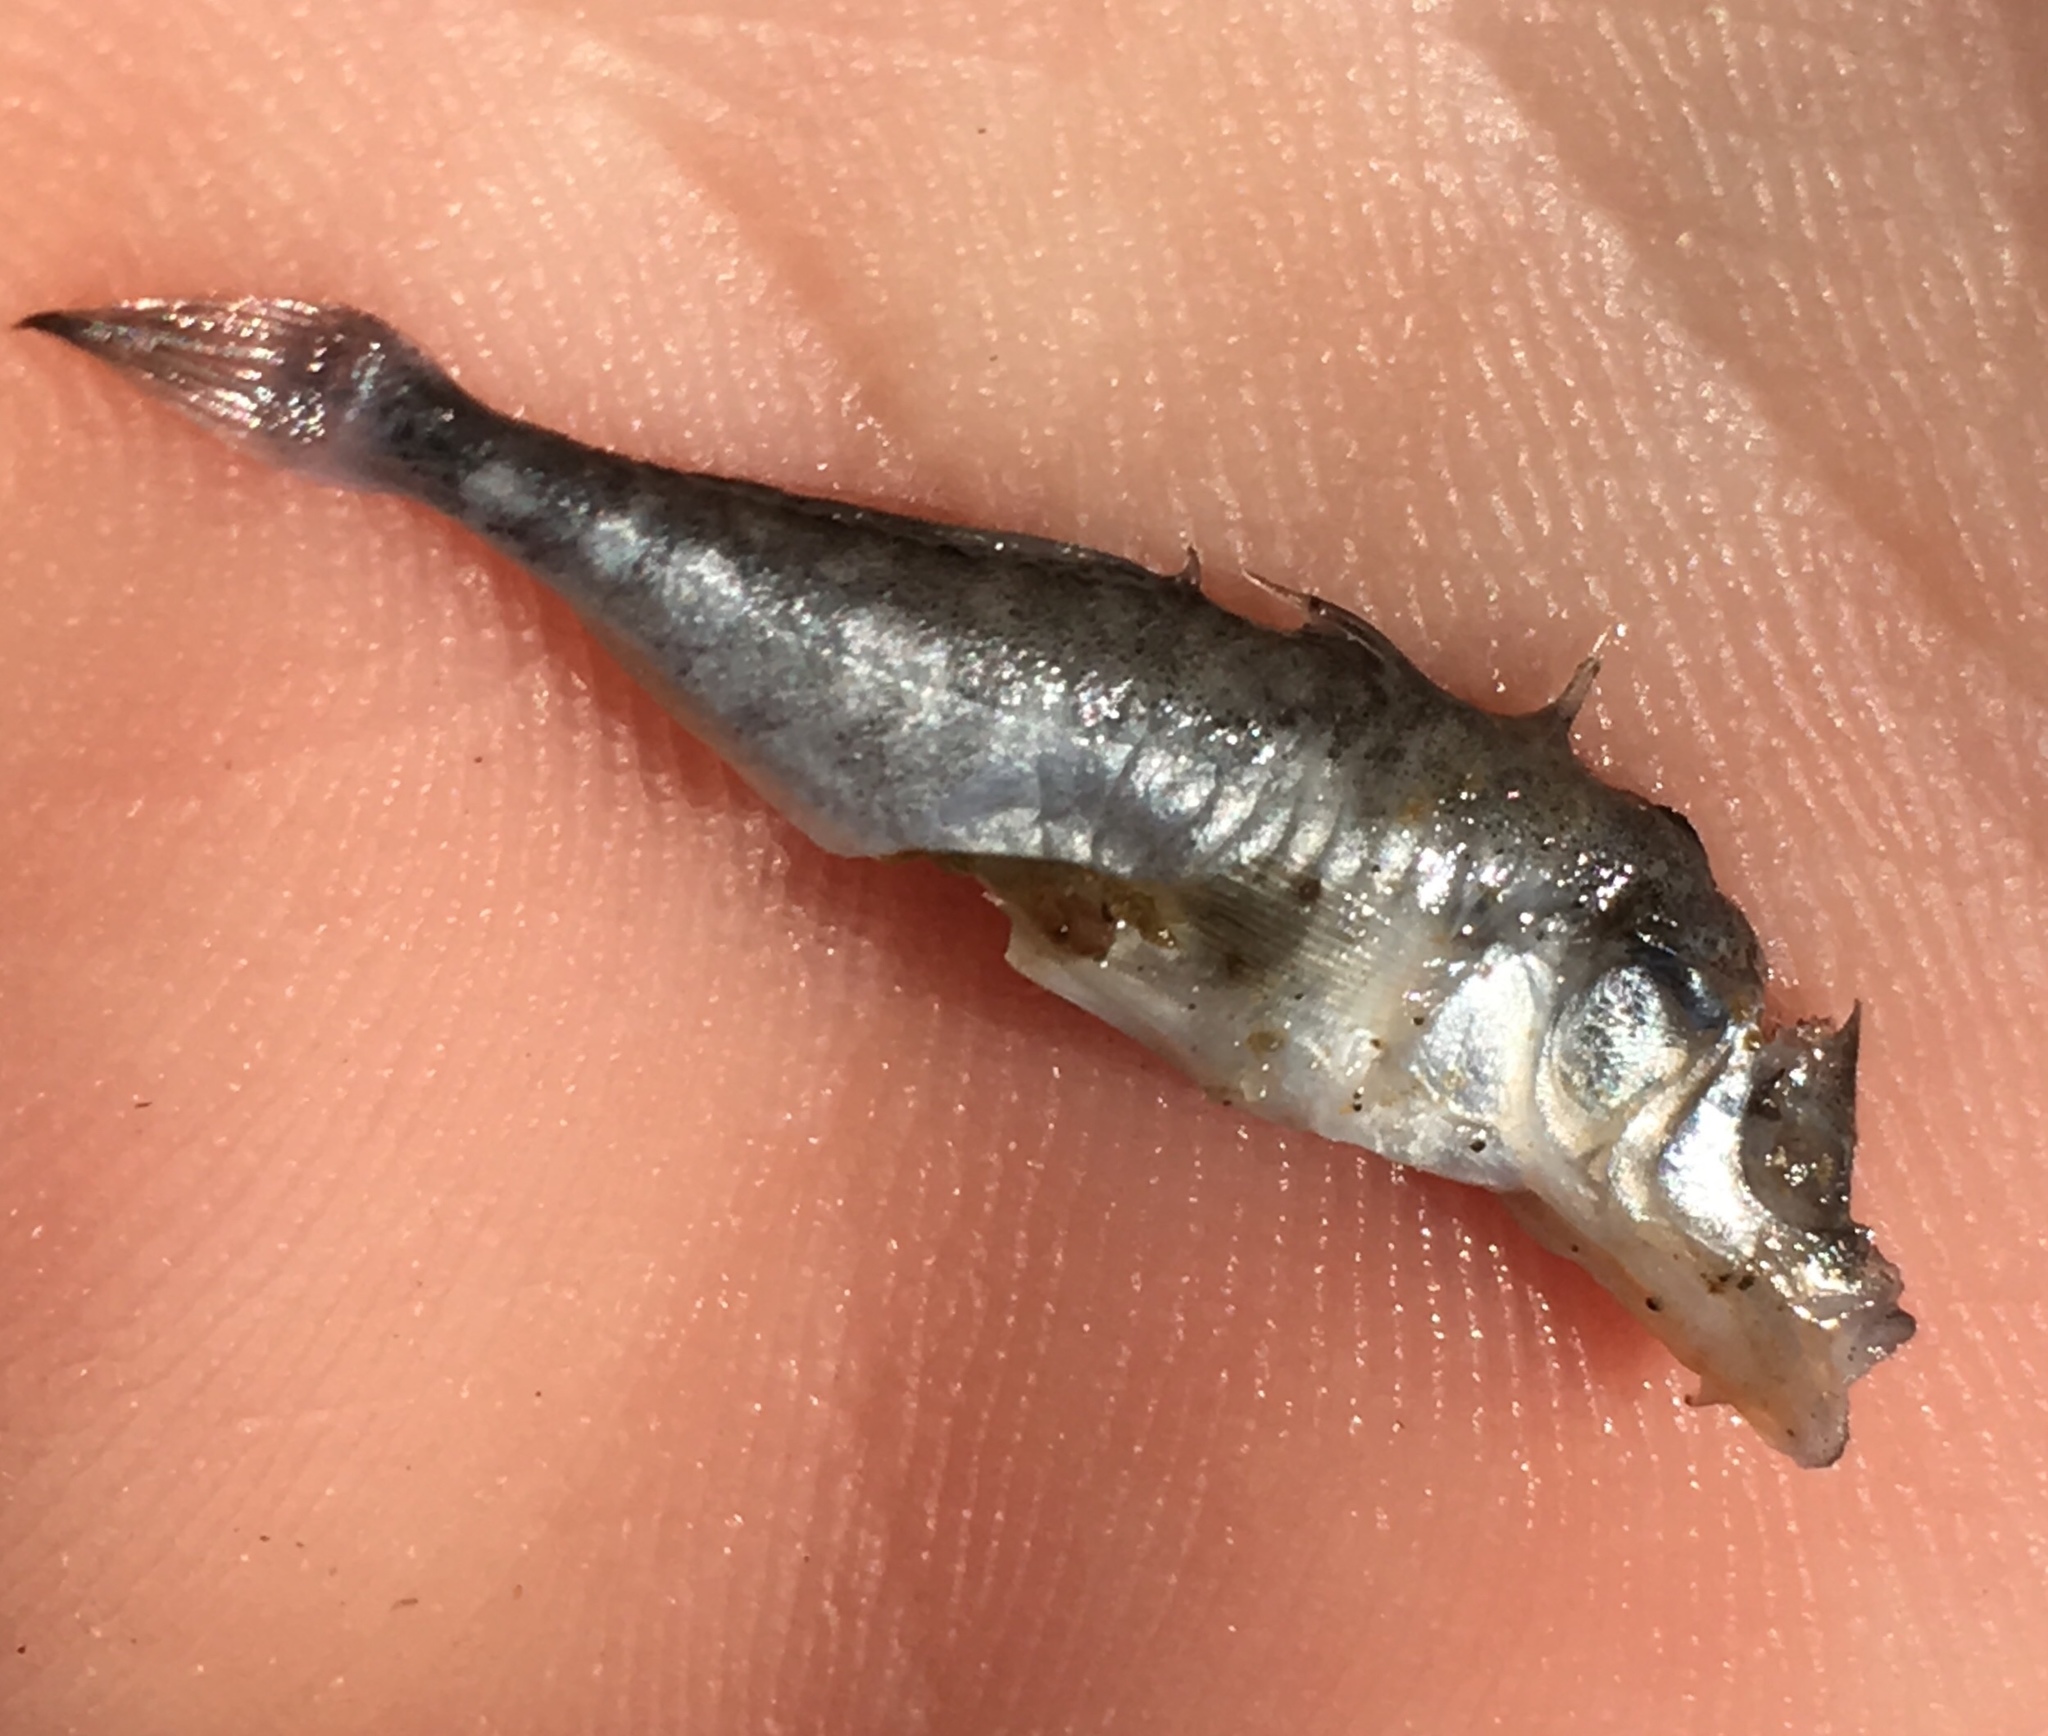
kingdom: Animalia
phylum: Chordata
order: Gasterosteiformes
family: Gasterosteidae
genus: Gasterosteus
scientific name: Gasterosteus aculeatus
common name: Three-spined stickleback
